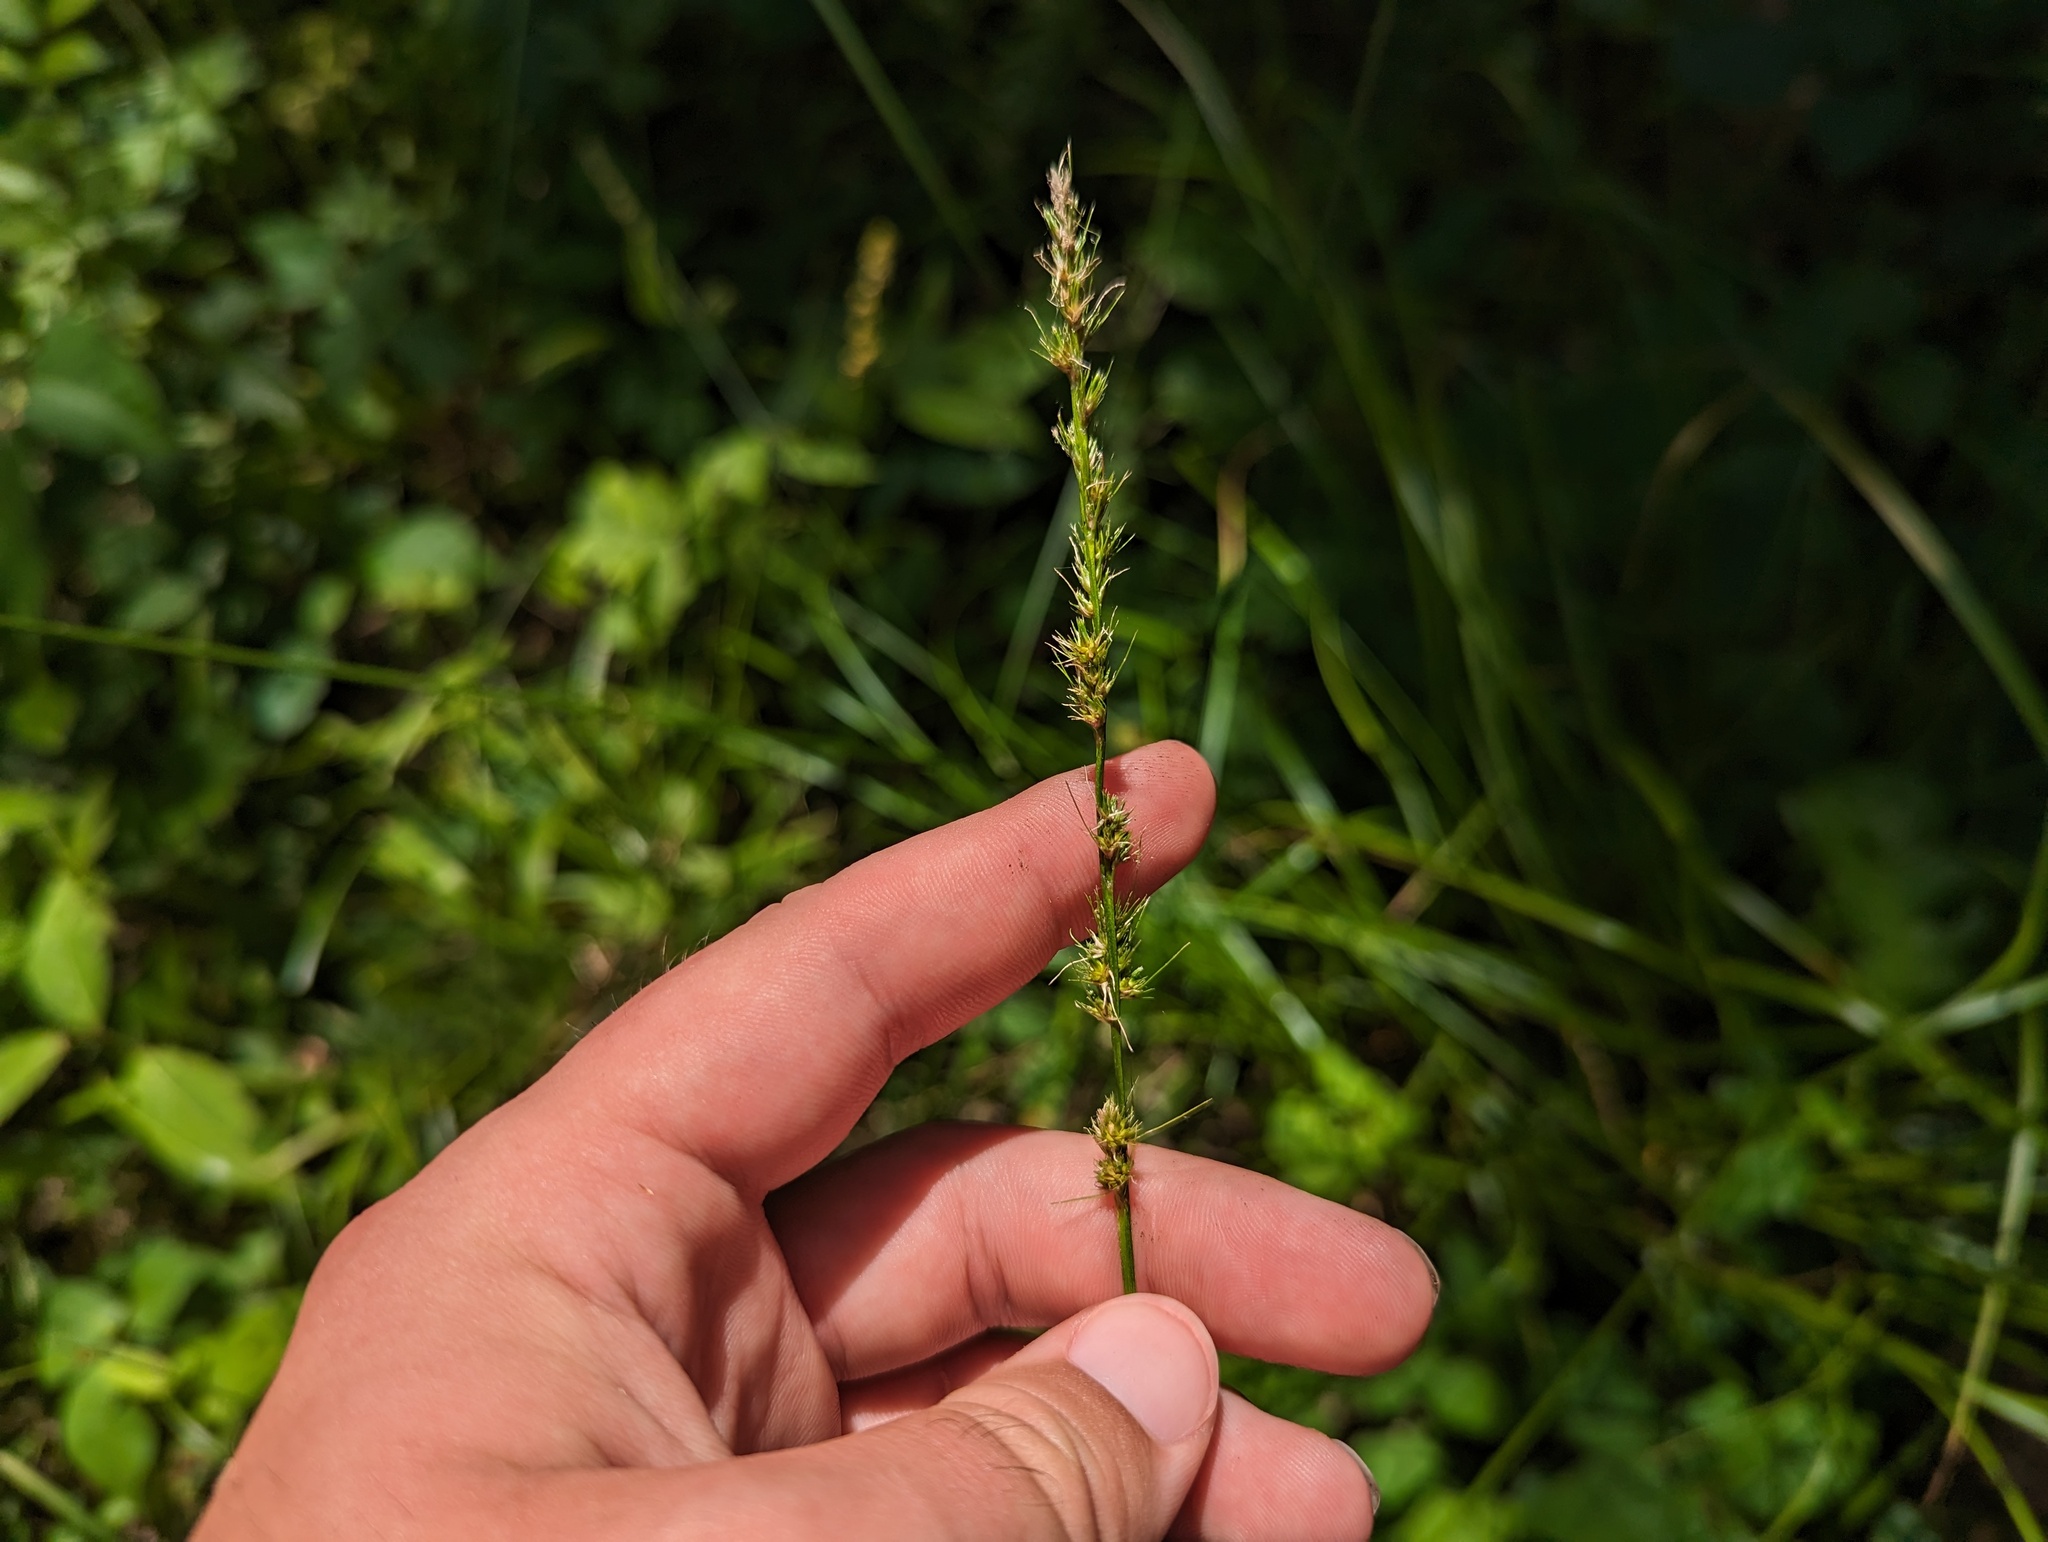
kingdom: Plantae
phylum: Tracheophyta
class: Liliopsida
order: Poales
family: Cyperaceae
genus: Carex
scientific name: Carex sparganioides
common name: Burreed sedge
